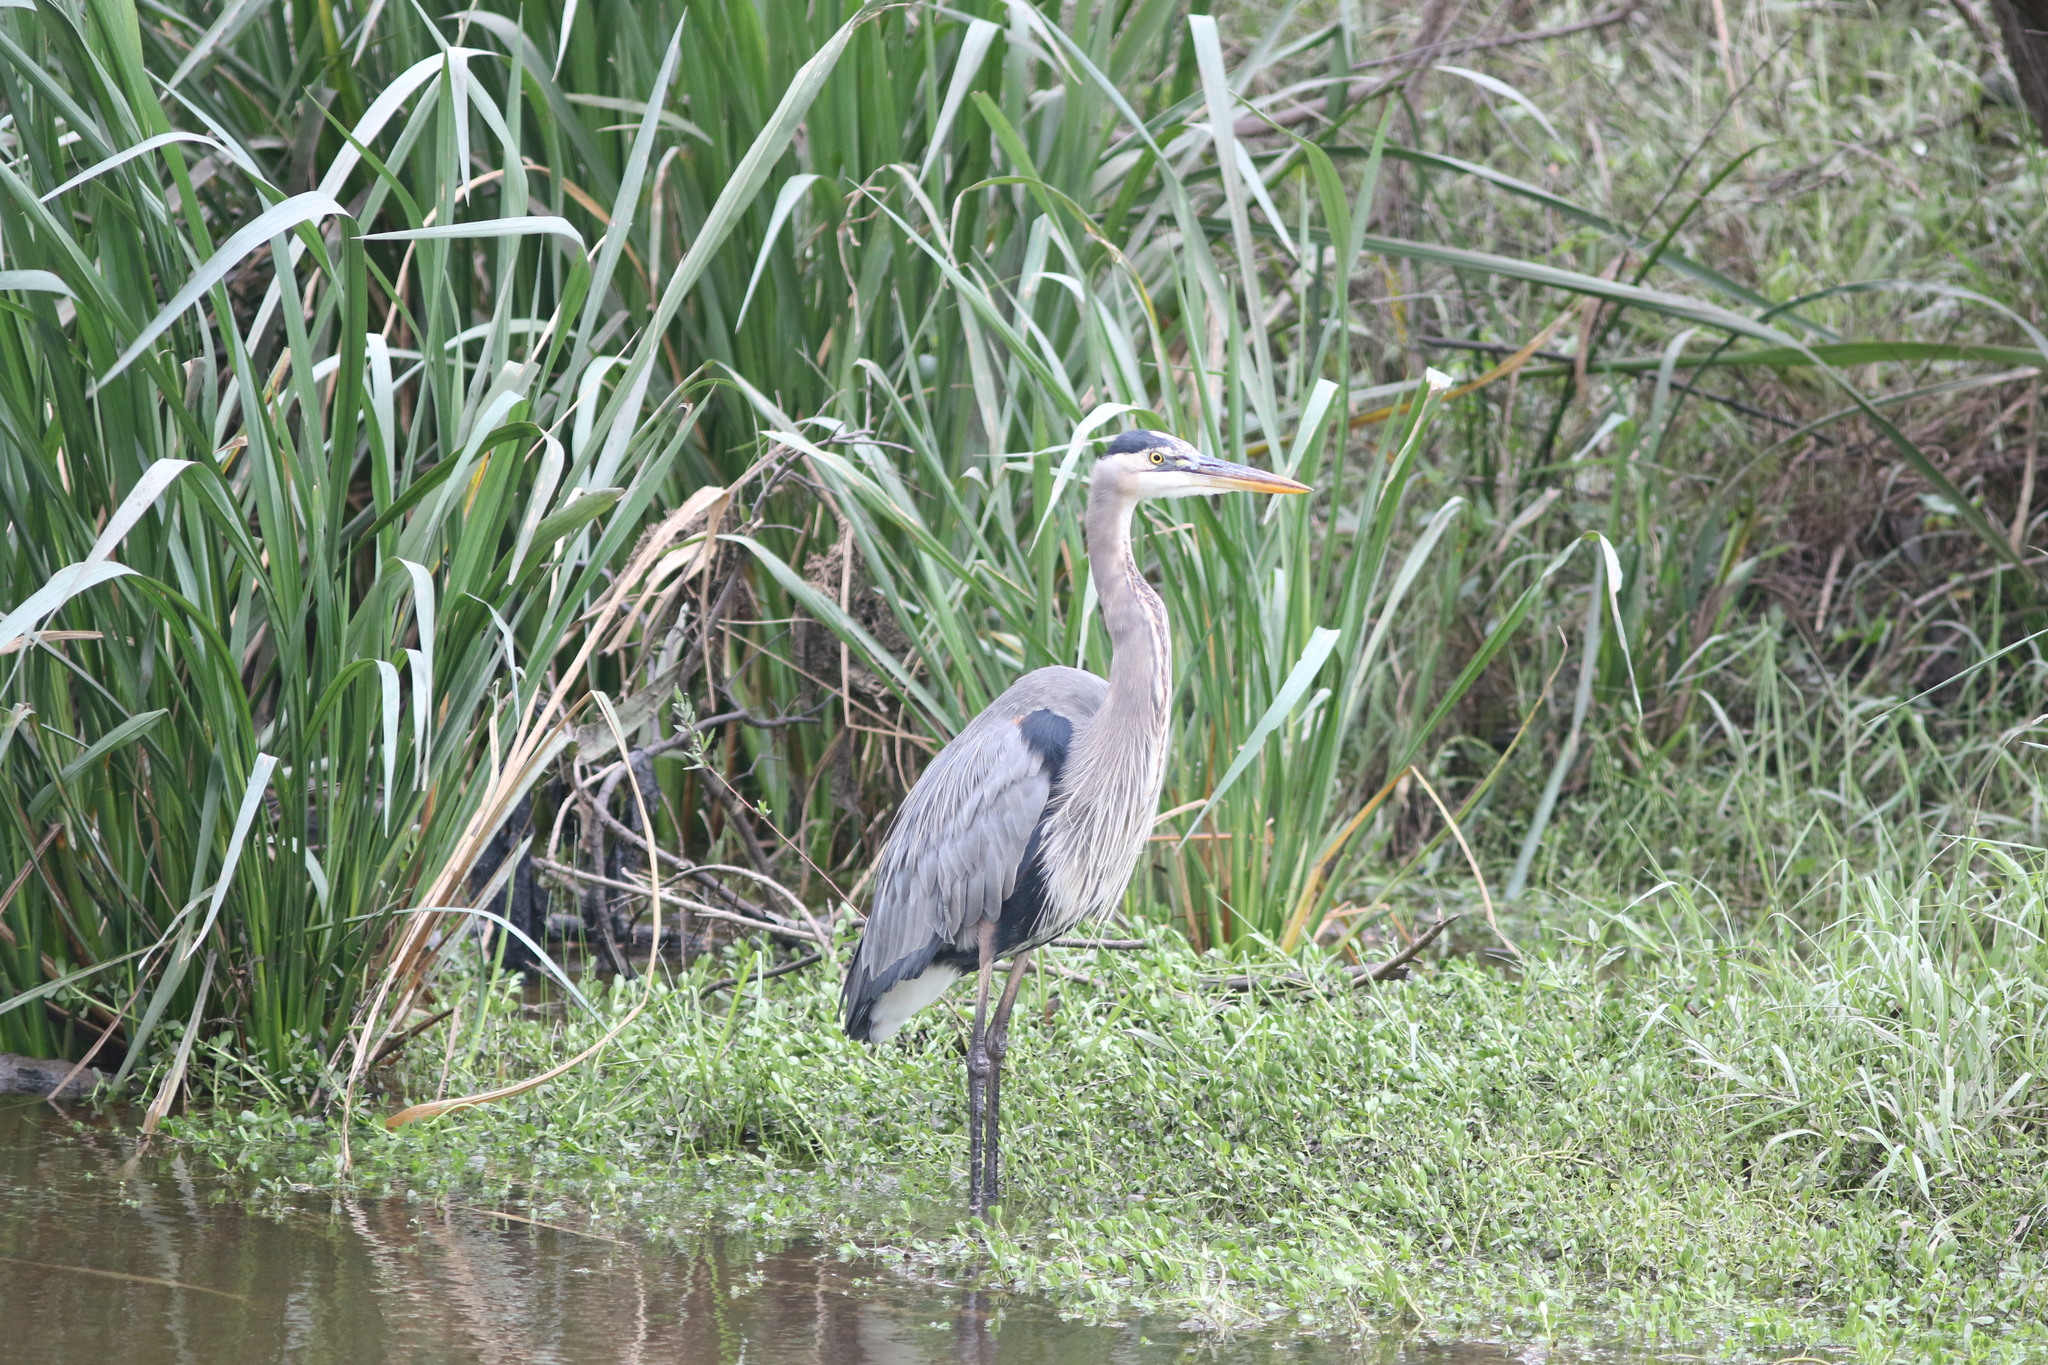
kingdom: Animalia
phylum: Chordata
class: Aves
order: Pelecaniformes
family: Ardeidae
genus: Ardea
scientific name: Ardea herodias
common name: Great blue heron
